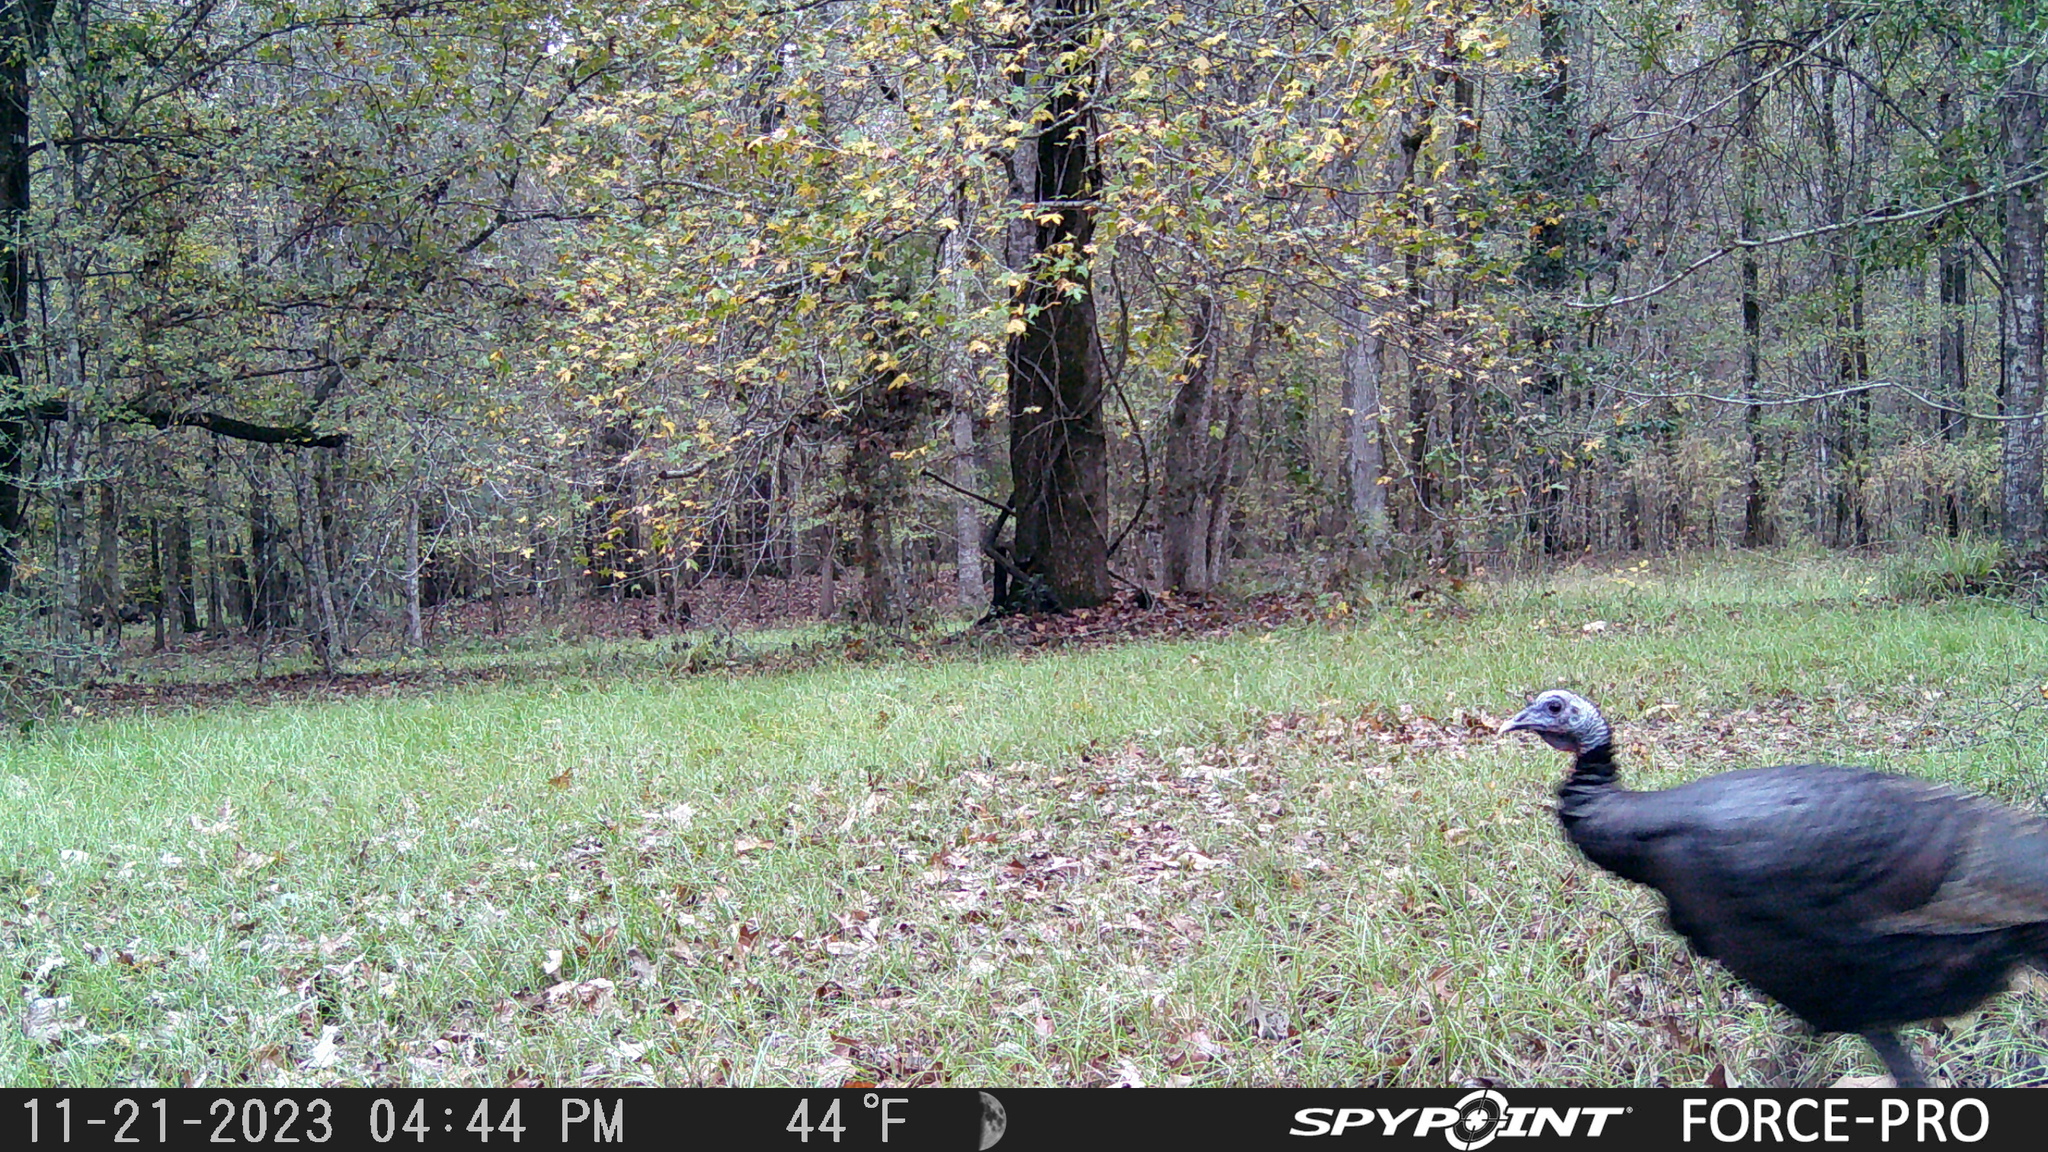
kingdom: Animalia
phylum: Chordata
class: Aves
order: Galliformes
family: Phasianidae
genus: Meleagris
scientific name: Meleagris gallopavo
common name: Wild turkey
